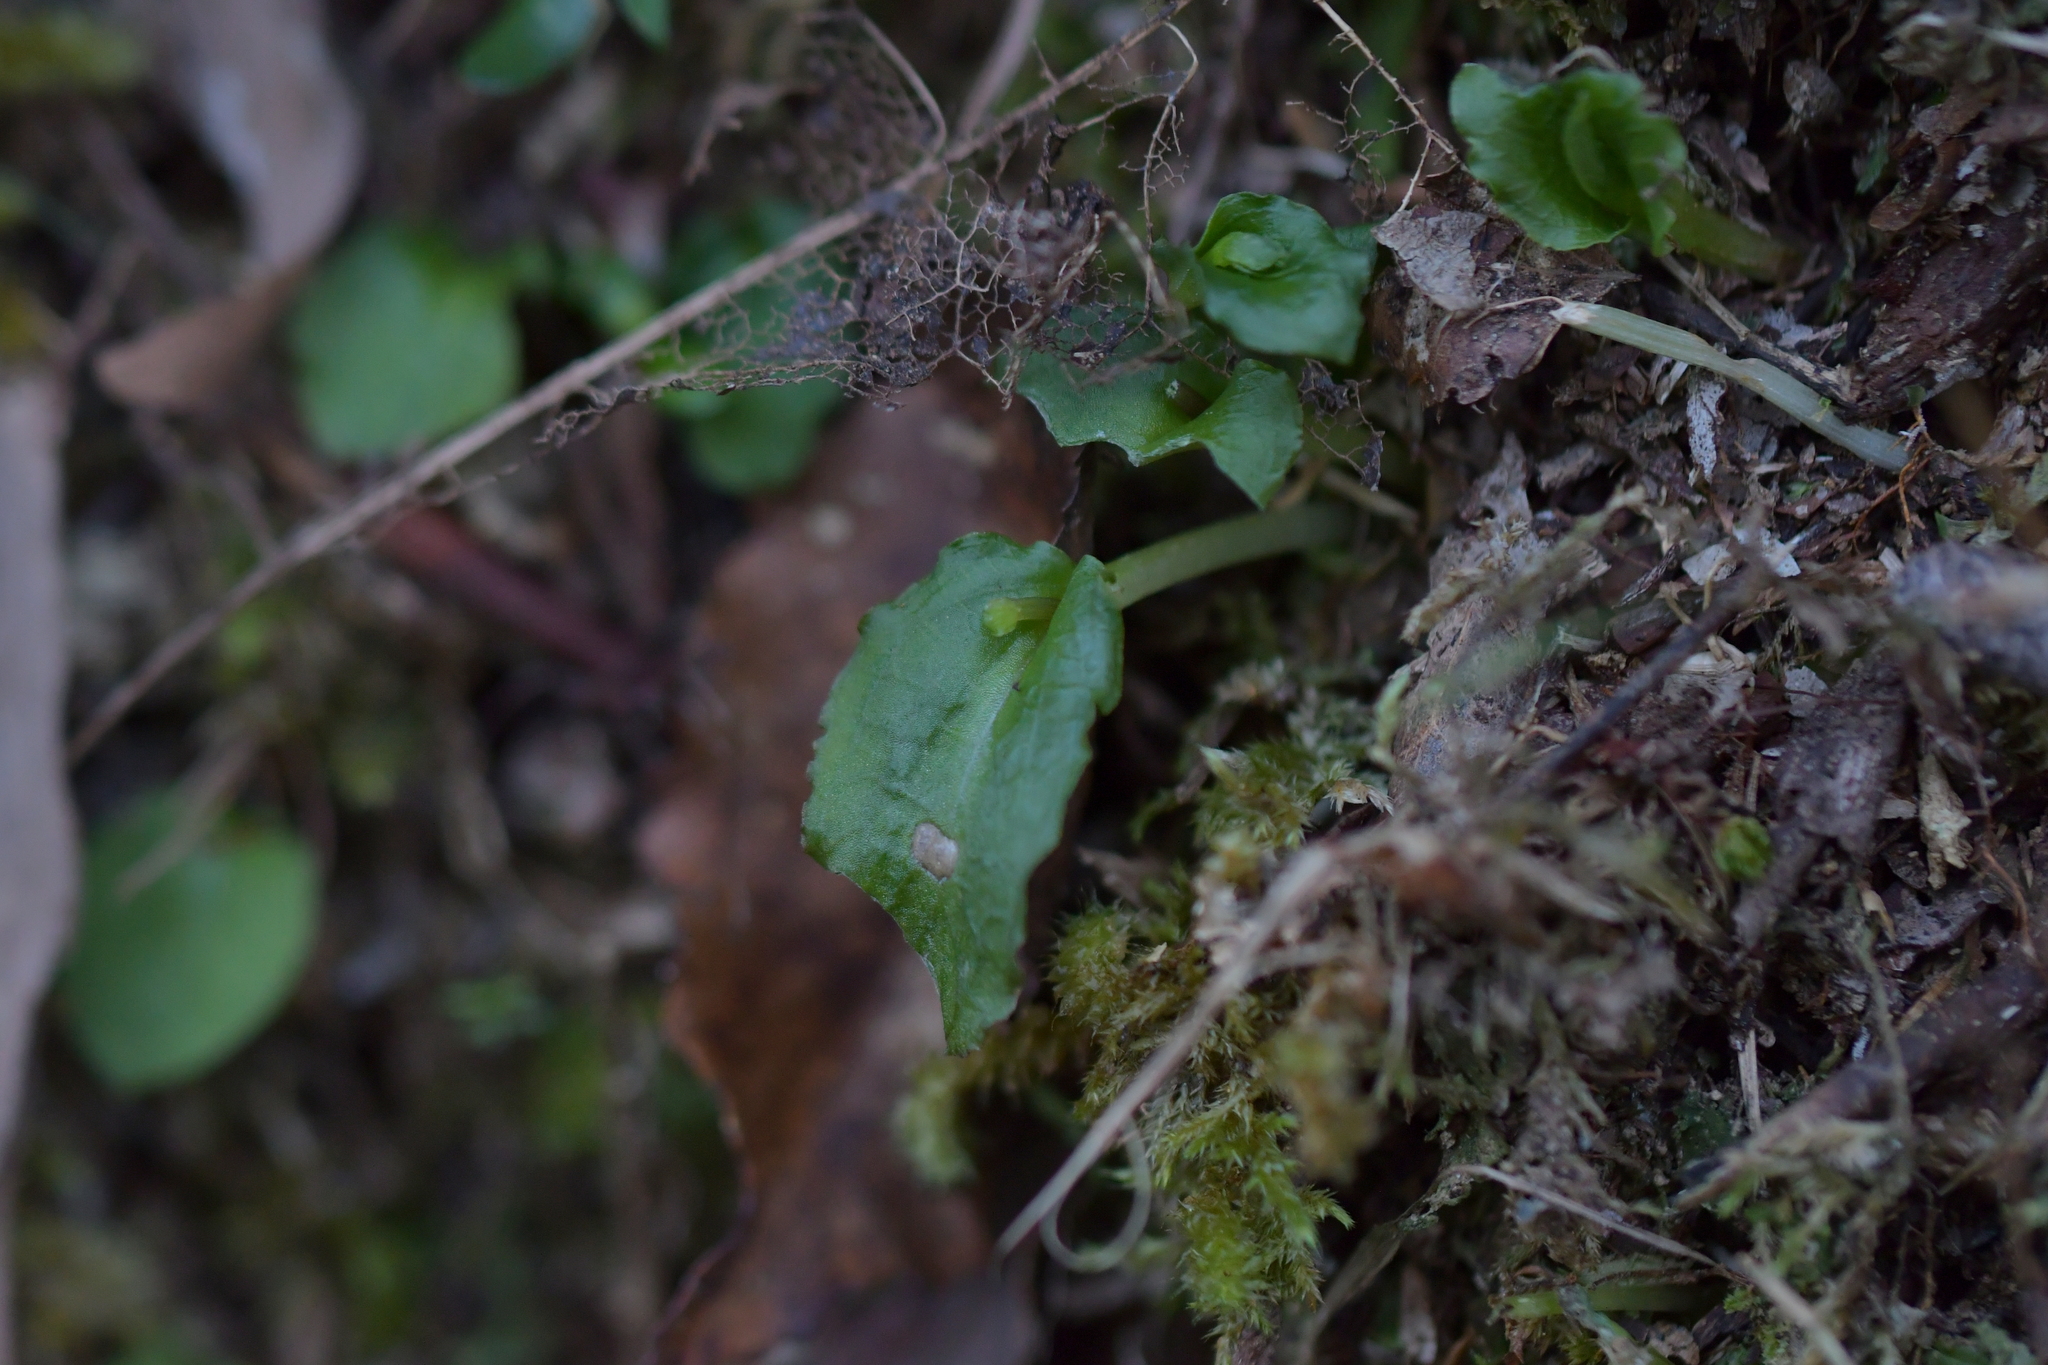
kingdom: Plantae
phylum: Tracheophyta
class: Liliopsida
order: Asparagales
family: Orchidaceae
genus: Corybas
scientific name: Corybas oblongus
